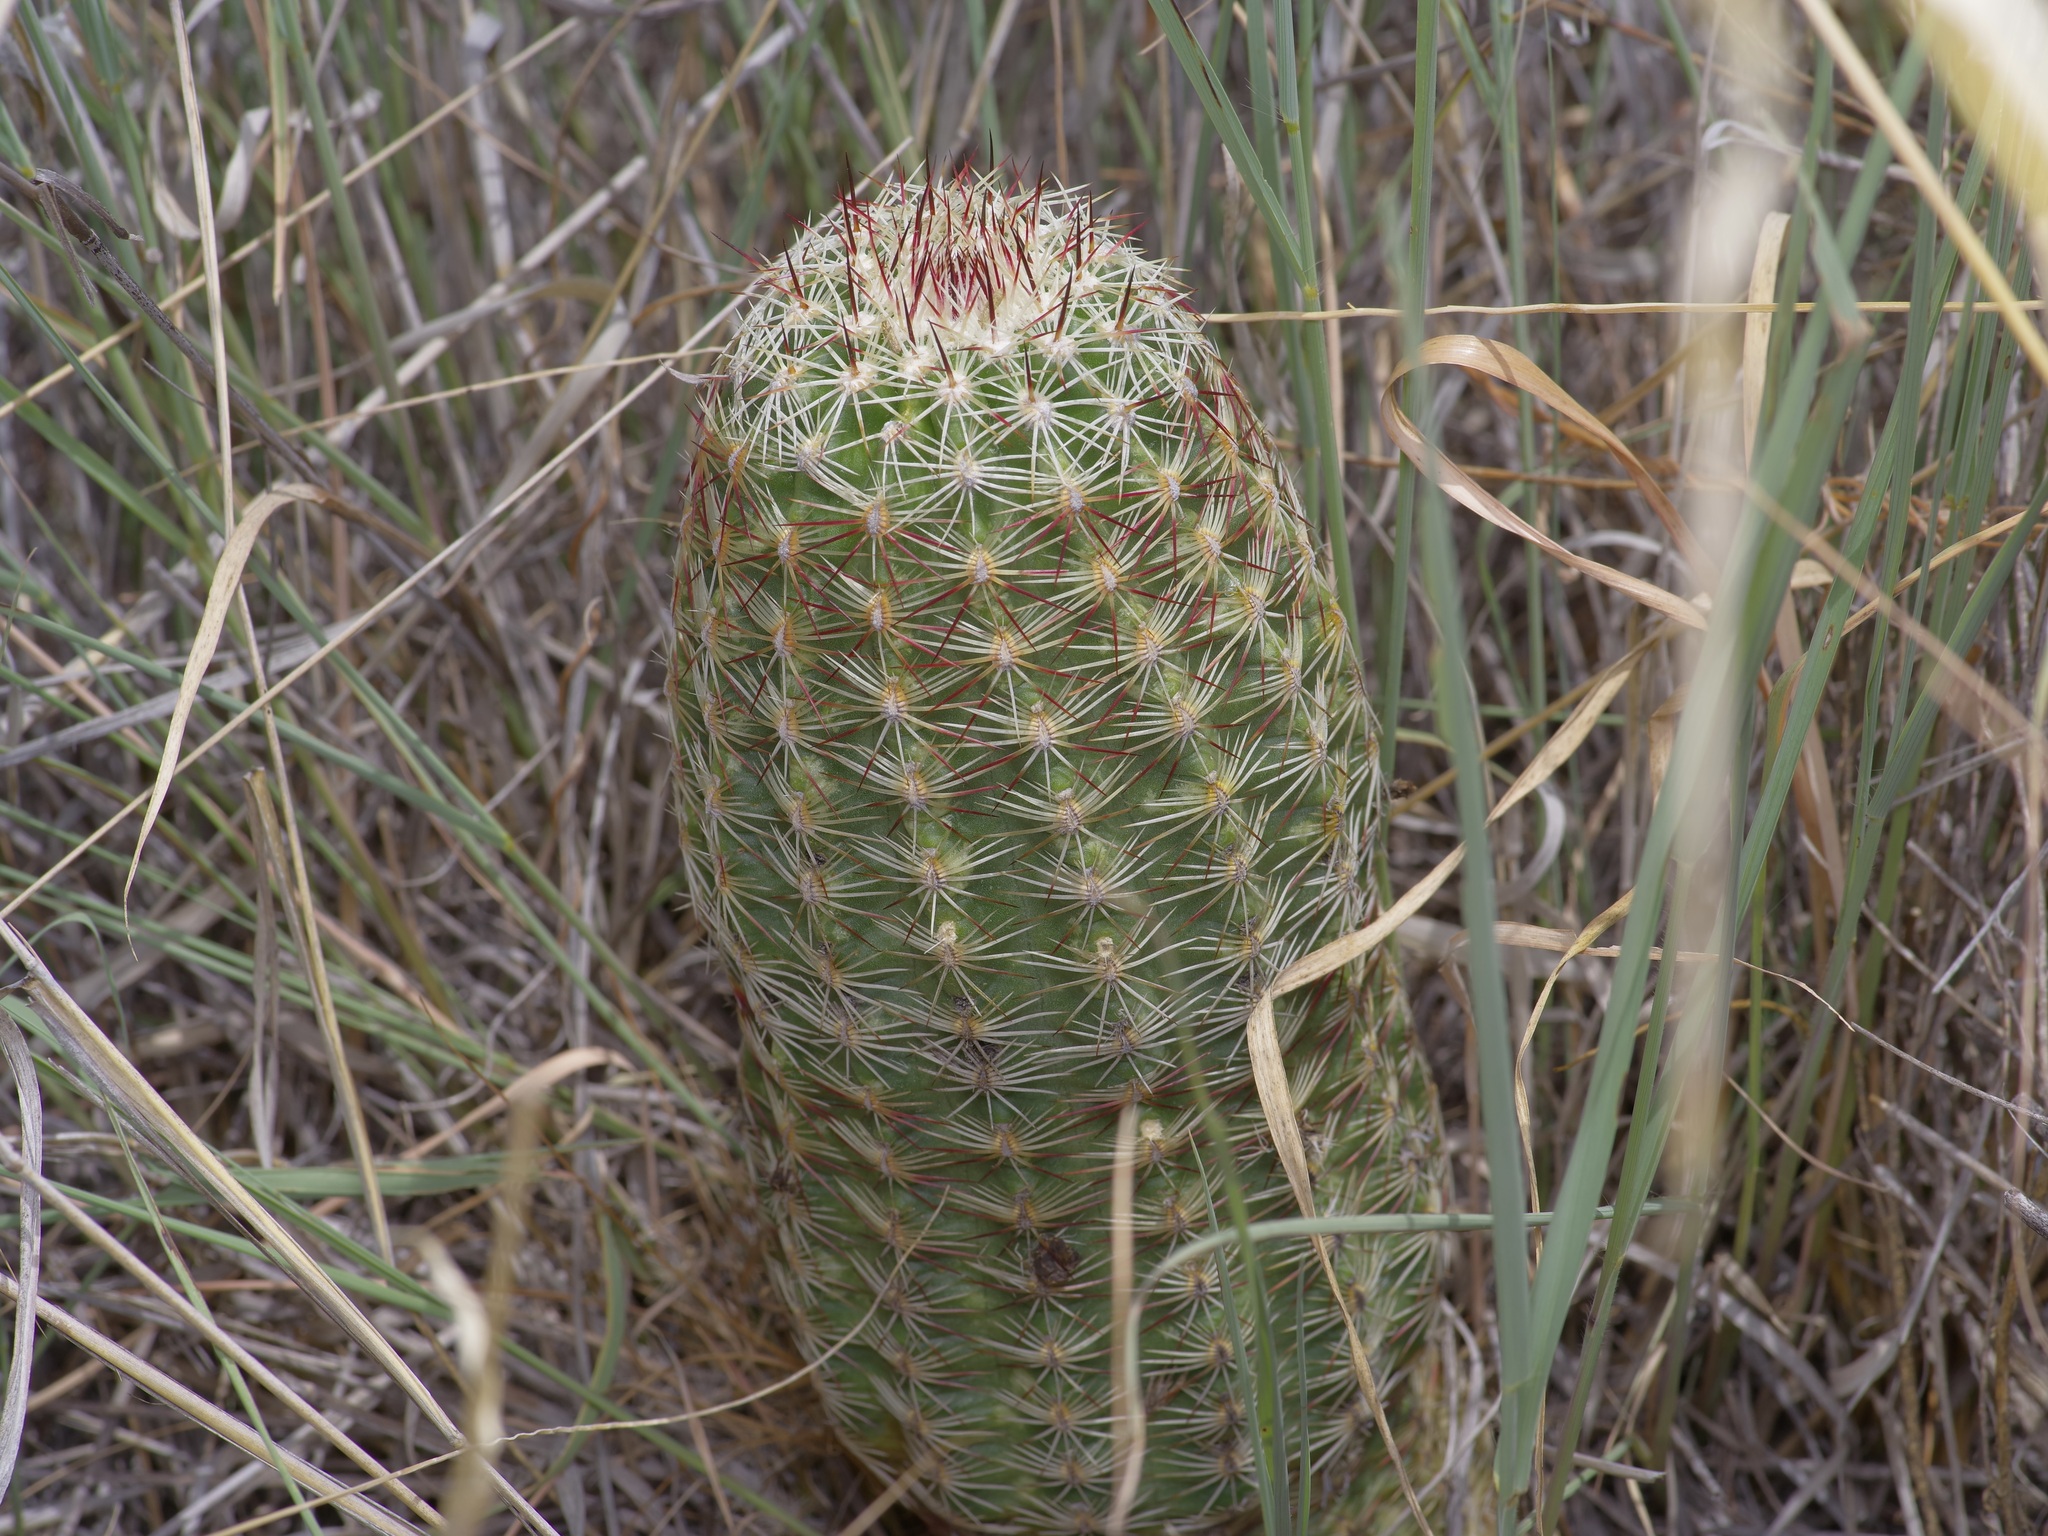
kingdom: Plantae
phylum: Tracheophyta
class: Magnoliopsida
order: Caryophyllales
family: Cactaceae
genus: Echinocereus
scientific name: Echinocereus viridiflorus
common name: Nylon hedgehog cactus
